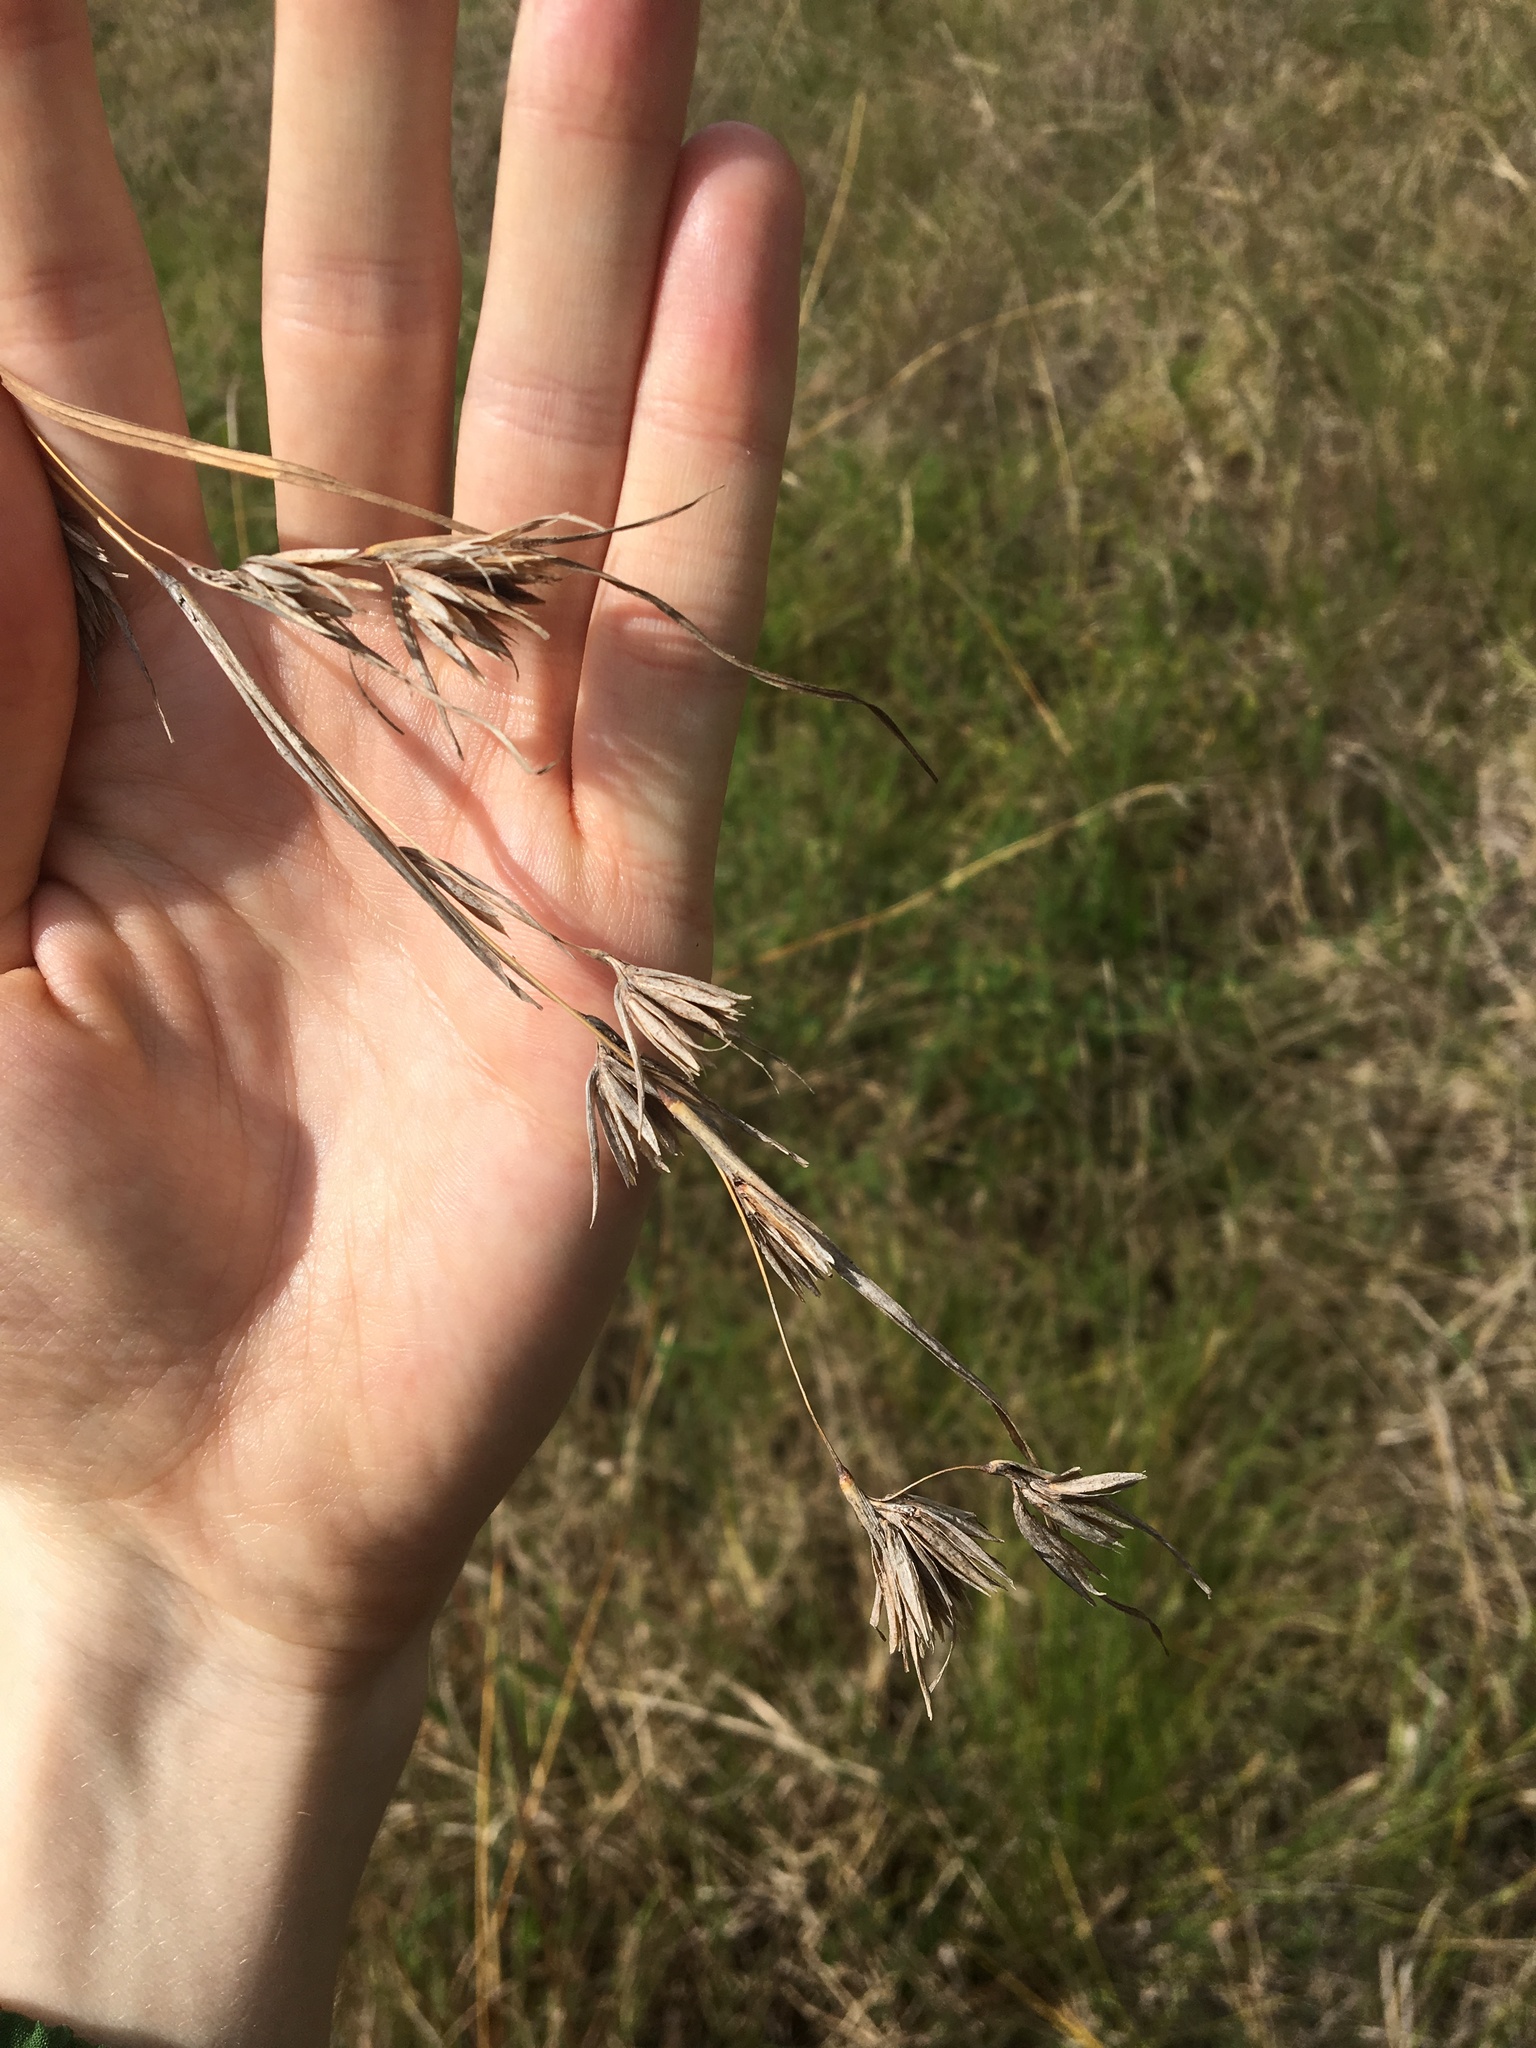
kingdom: Plantae
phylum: Tracheophyta
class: Liliopsida
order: Poales
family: Poaceae
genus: Themeda
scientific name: Themeda triandra
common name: Kangaroo grass
